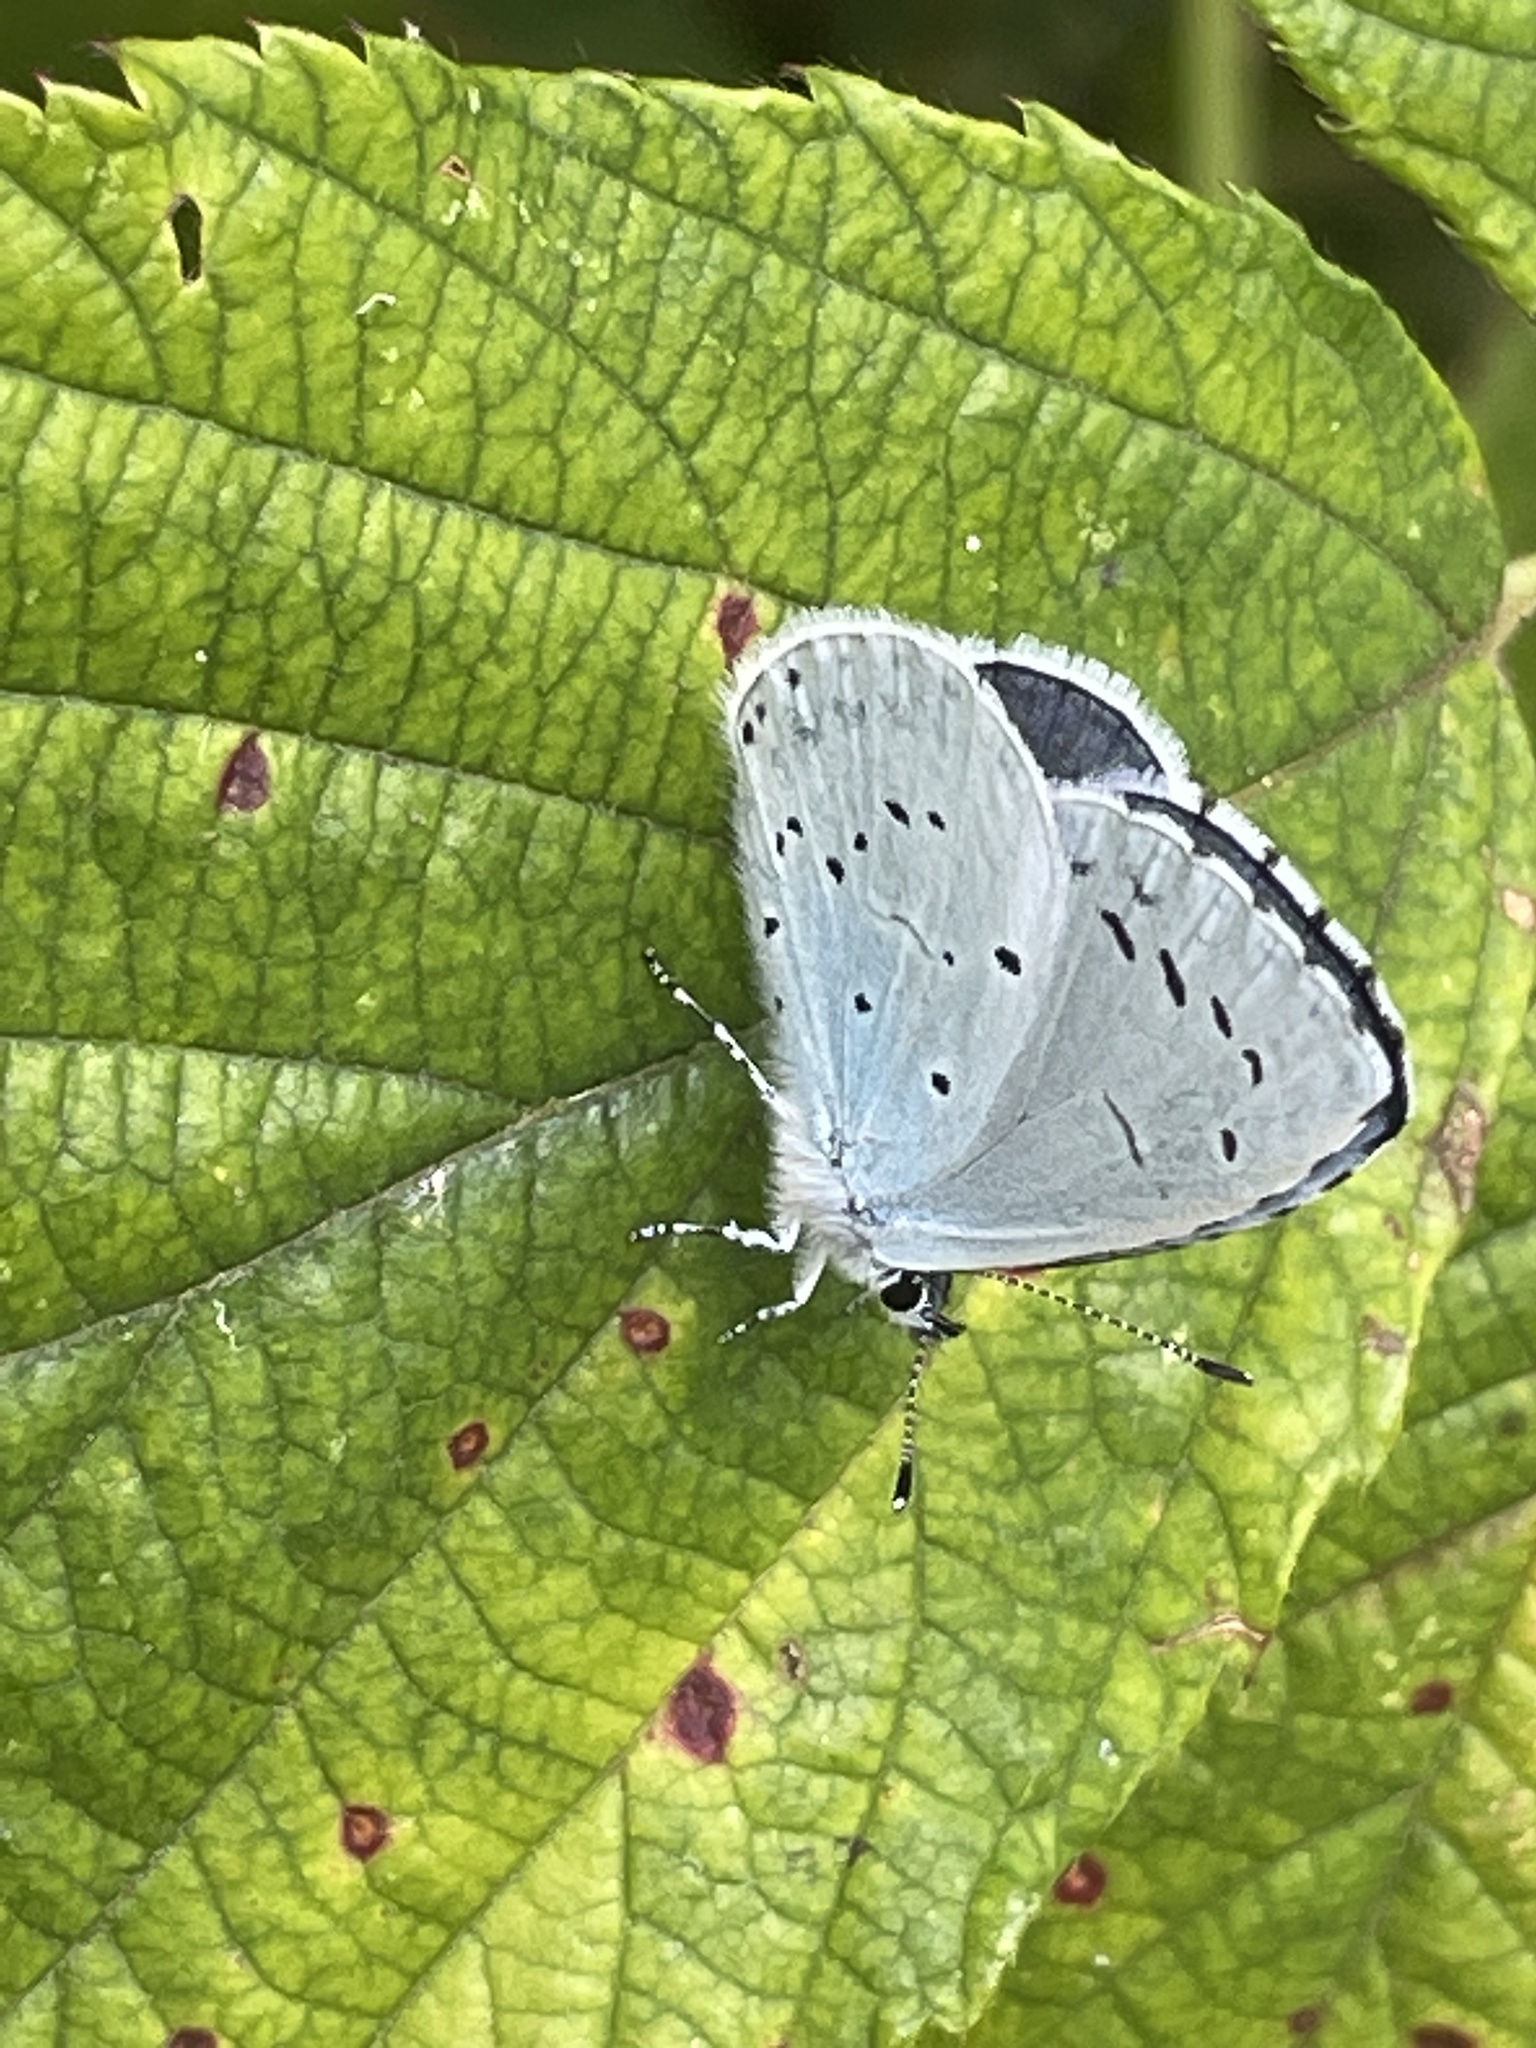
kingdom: Animalia
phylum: Arthropoda
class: Insecta
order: Lepidoptera
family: Lycaenidae
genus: Celastrina
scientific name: Celastrina argiolus
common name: Holly blue
